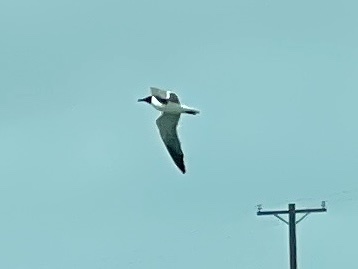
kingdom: Animalia
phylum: Chordata
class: Aves
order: Charadriiformes
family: Laridae
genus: Leucophaeus
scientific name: Leucophaeus atricilla
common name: Laughing gull
